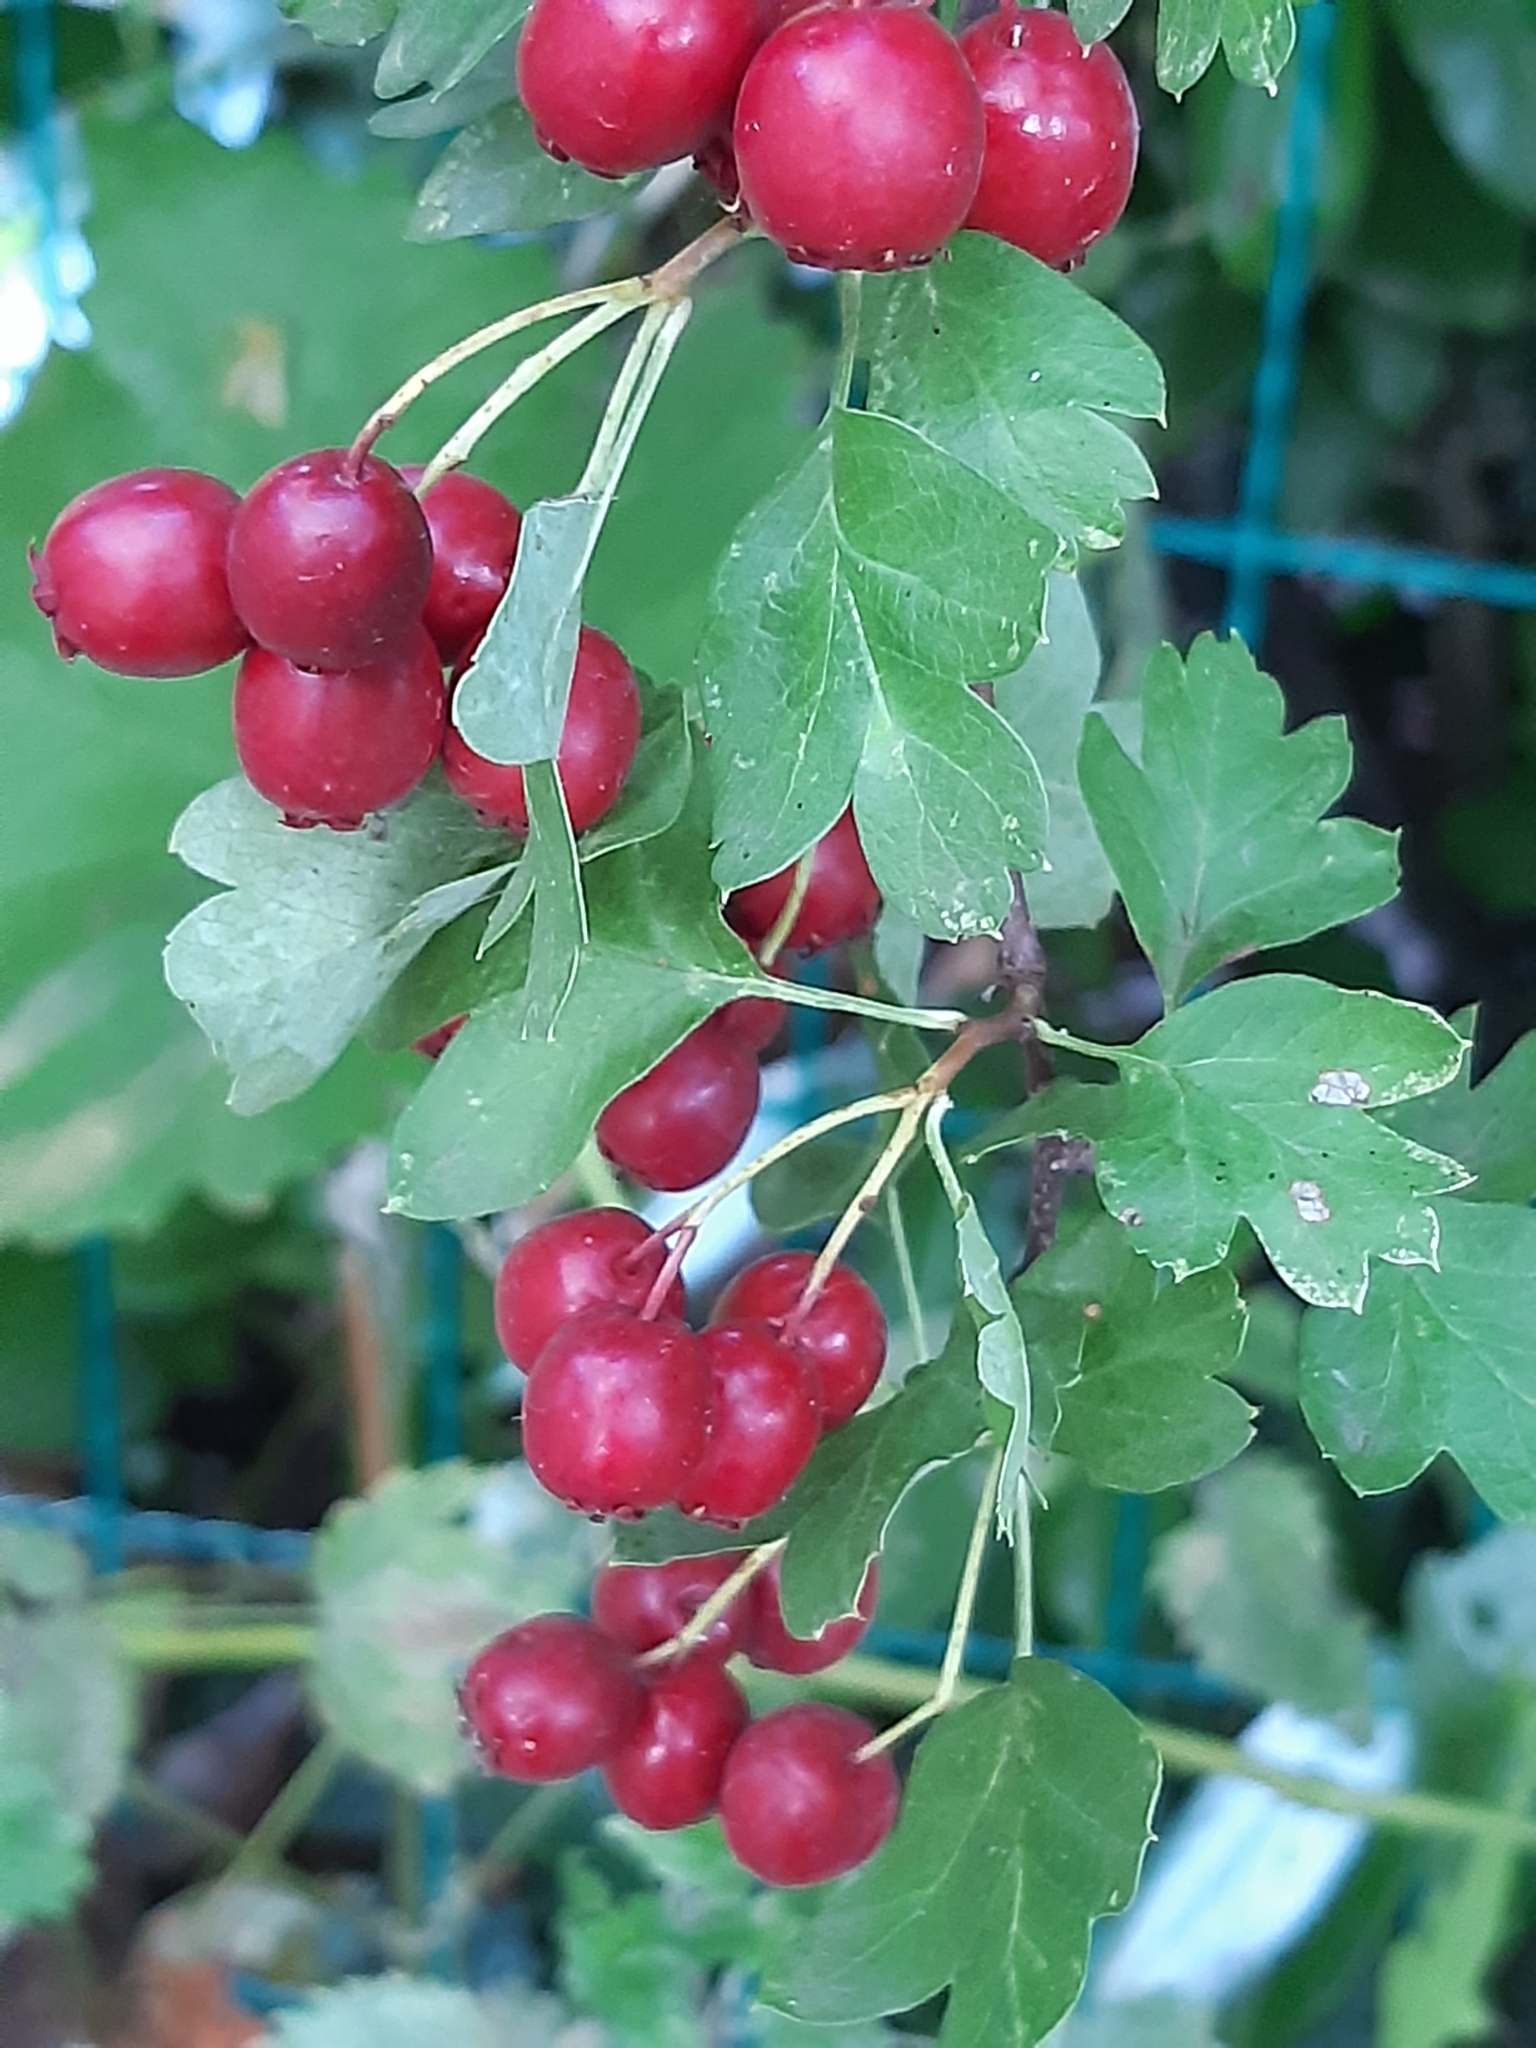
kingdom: Plantae
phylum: Tracheophyta
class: Magnoliopsida
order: Rosales
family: Rosaceae
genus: Crataegus
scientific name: Crataegus monogyna
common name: Hawthorn
